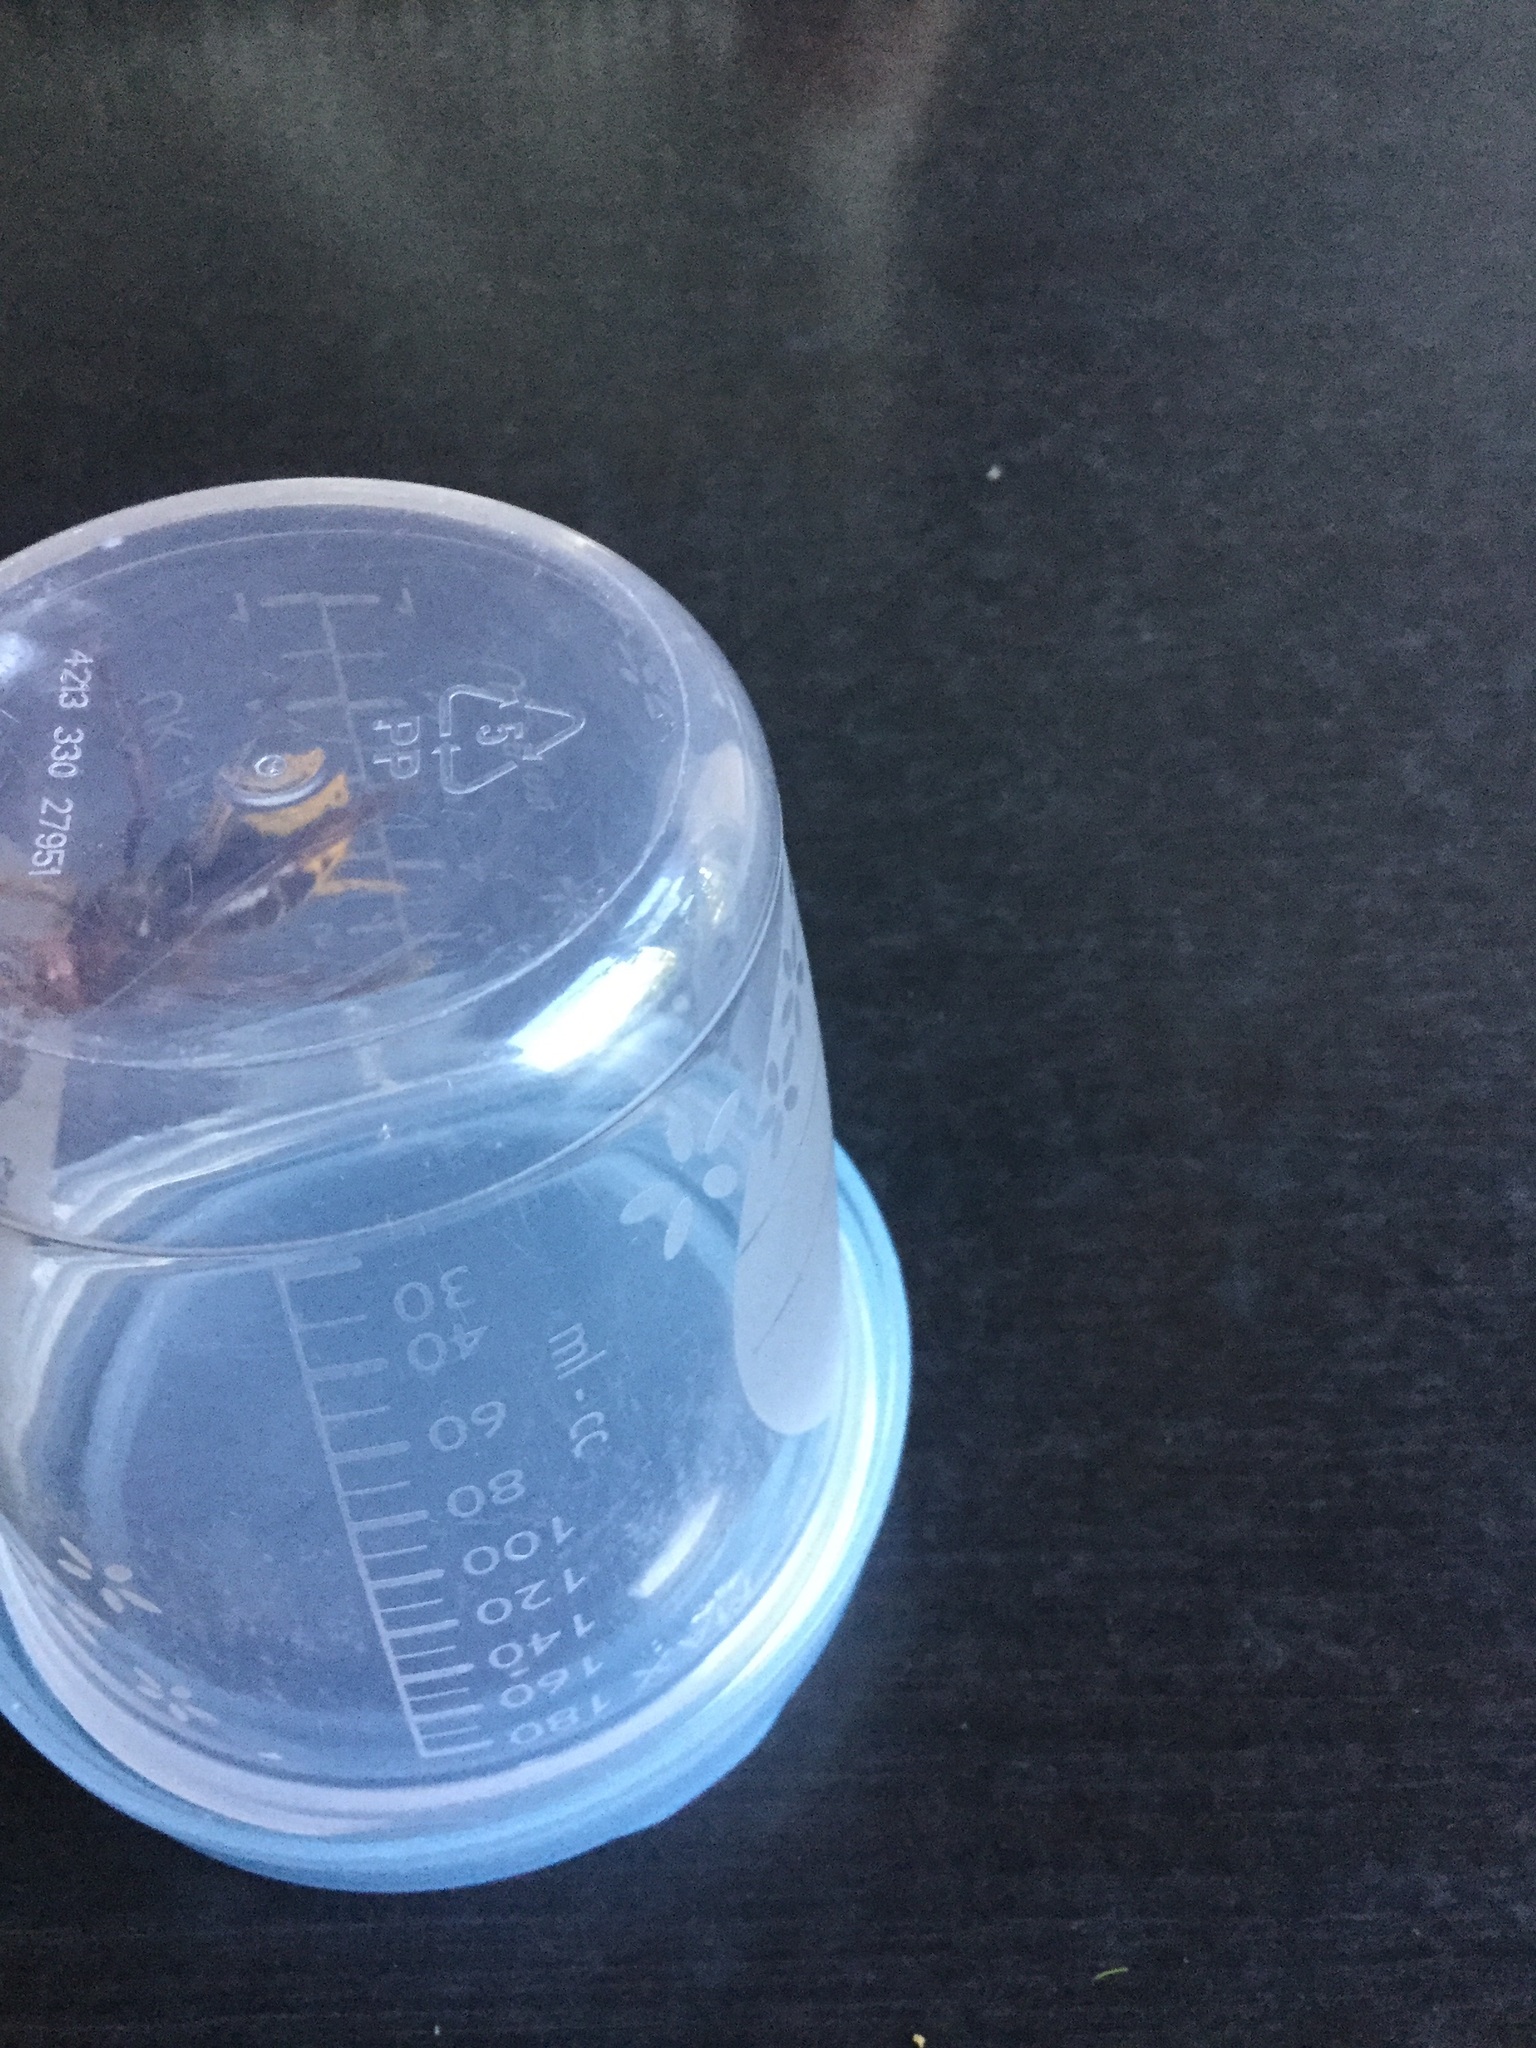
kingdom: Animalia
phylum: Arthropoda
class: Insecta
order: Hymenoptera
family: Vespidae
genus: Vespa
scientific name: Vespa crabro
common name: Hornet
